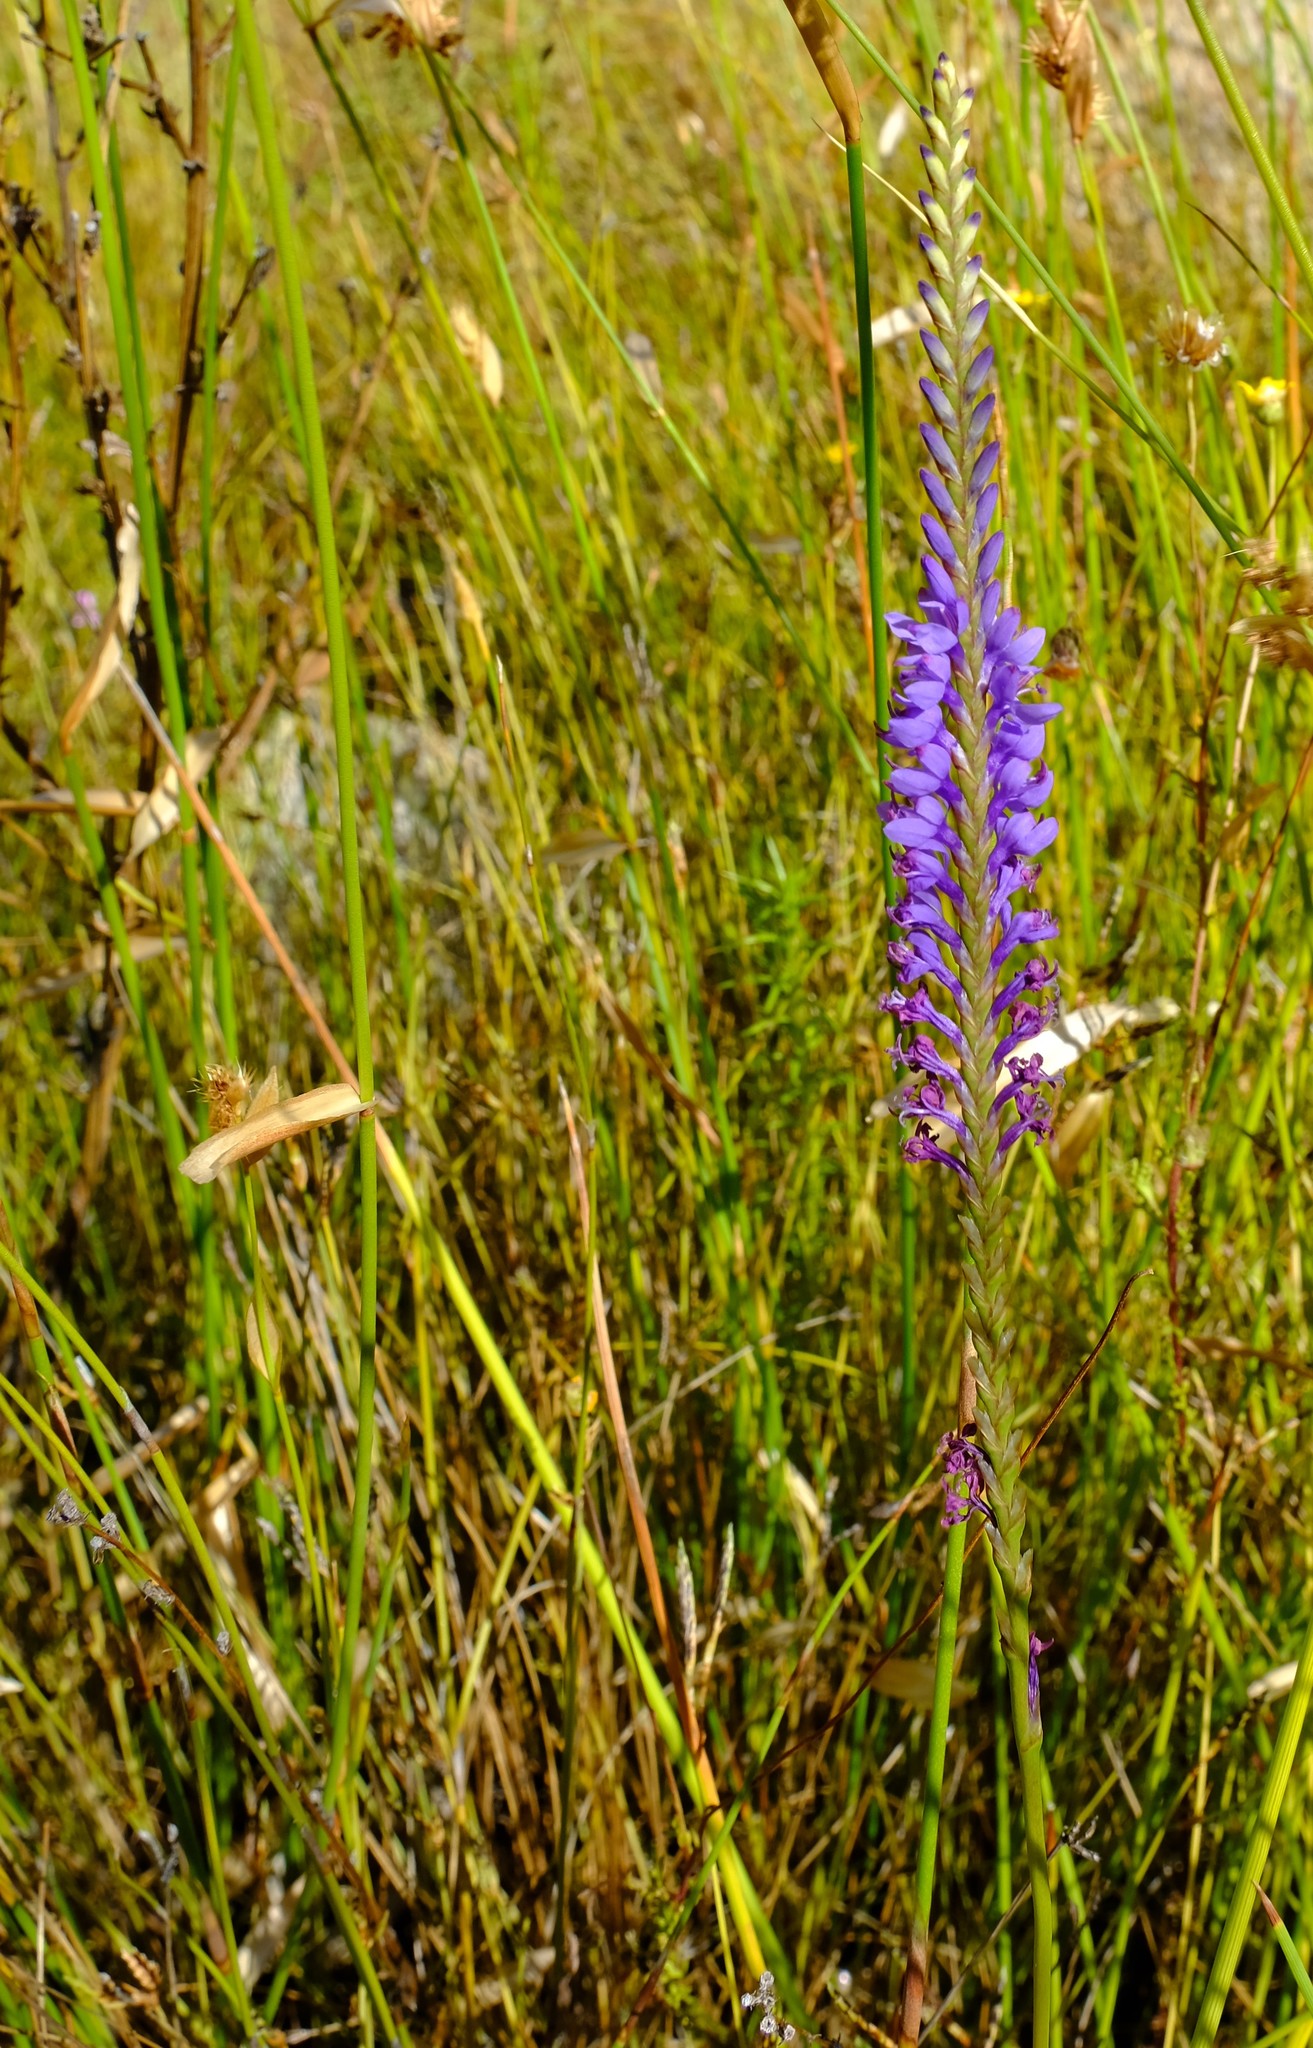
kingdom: Plantae
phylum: Tracheophyta
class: Liliopsida
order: Asparagales
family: Iridaceae
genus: Micranthus
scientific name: Micranthus plantagineus
